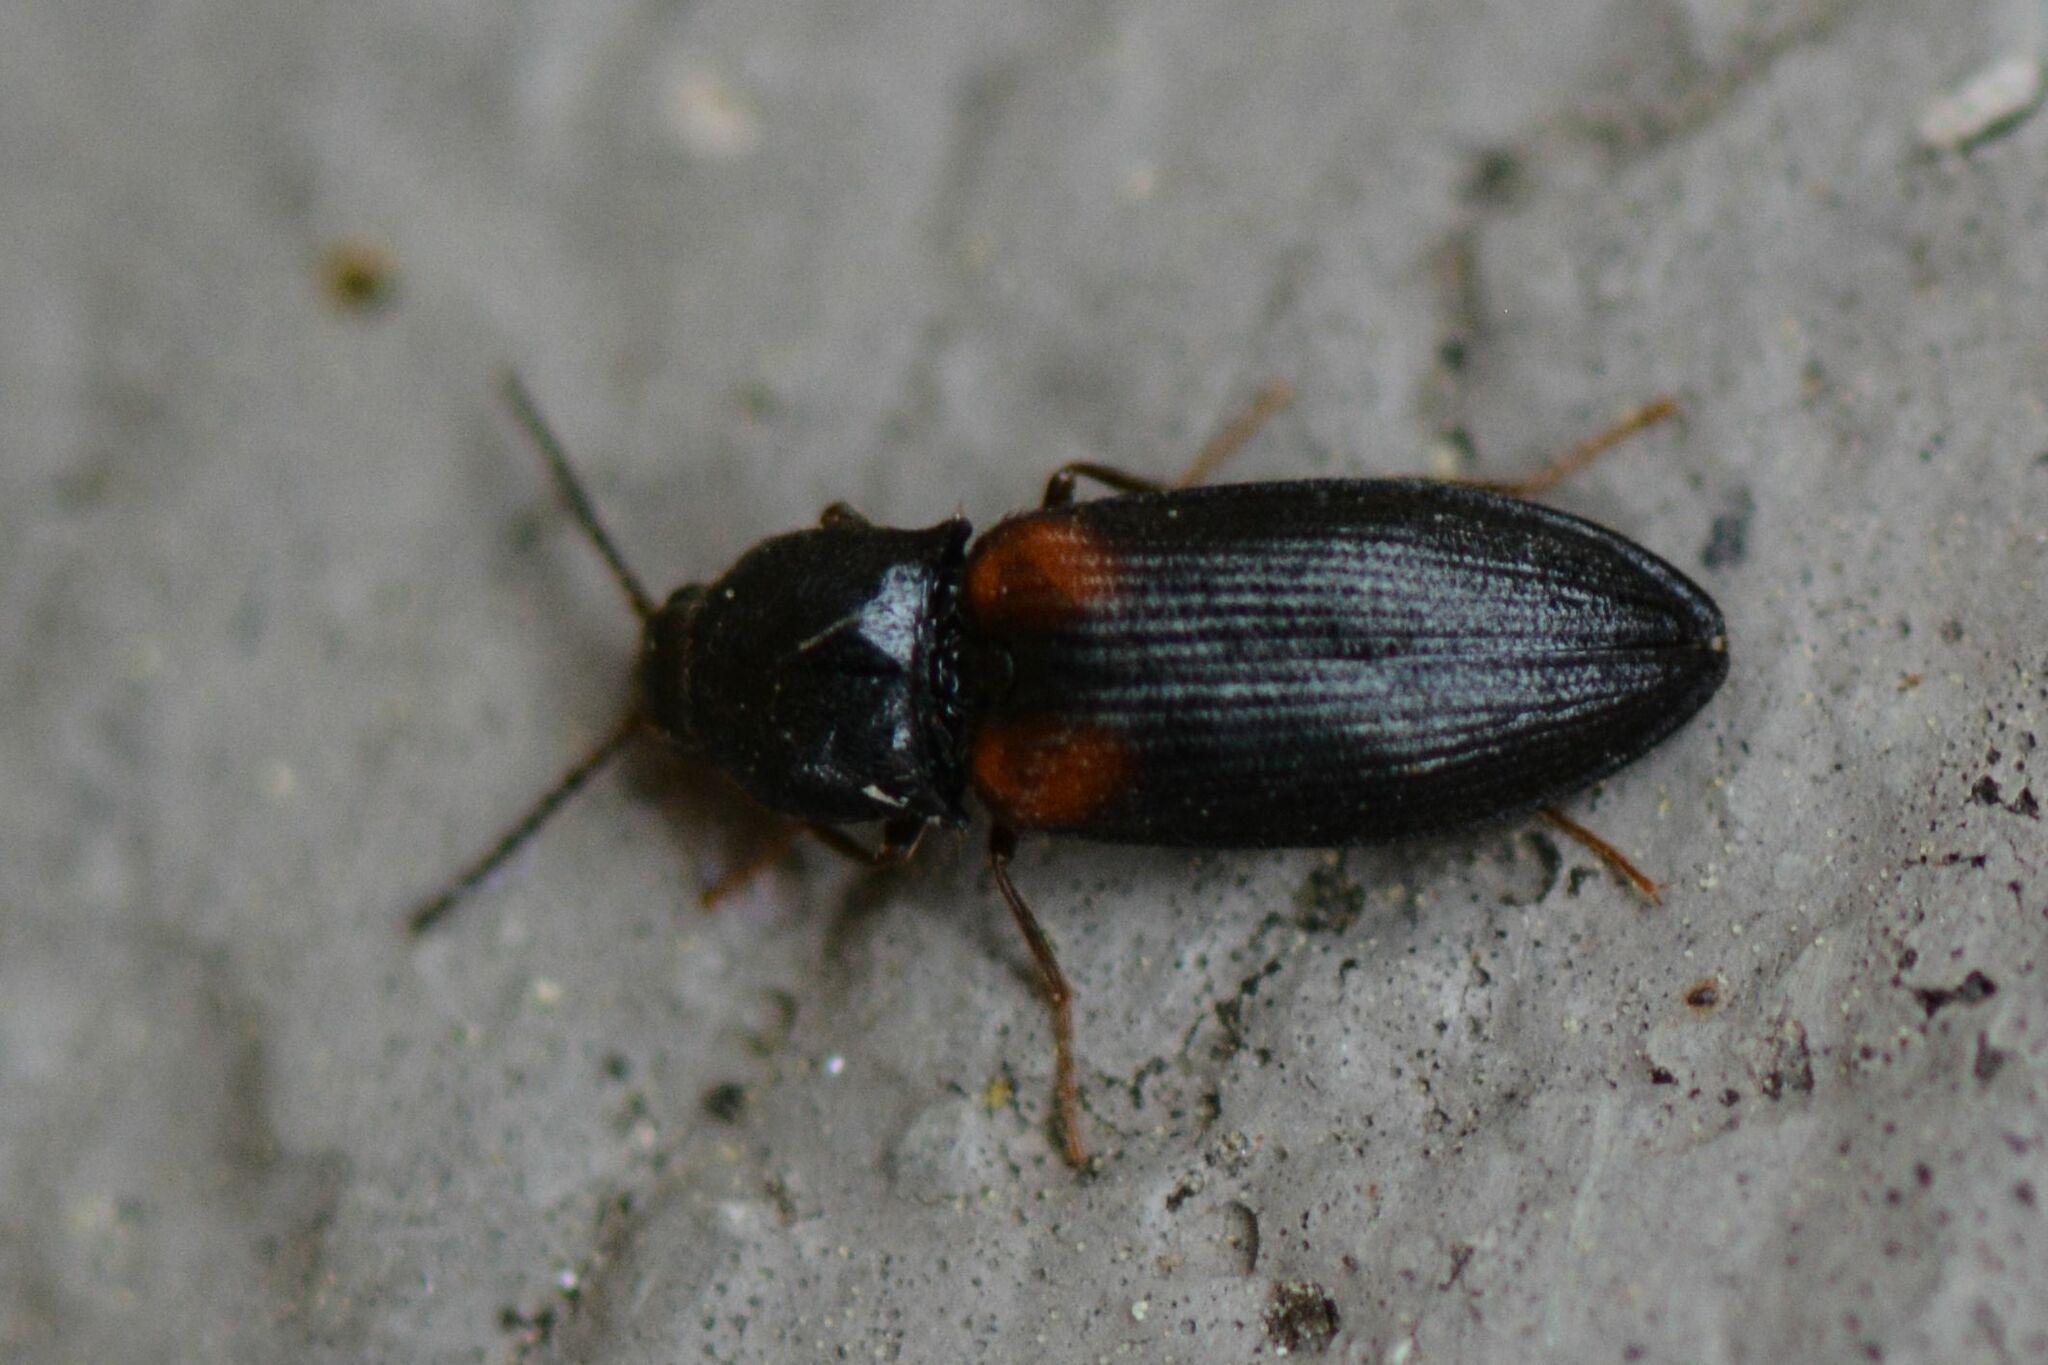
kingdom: Animalia
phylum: Arthropoda
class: Insecta
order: Coleoptera
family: Elateridae
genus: Calambus
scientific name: Calambus bipustulatus
